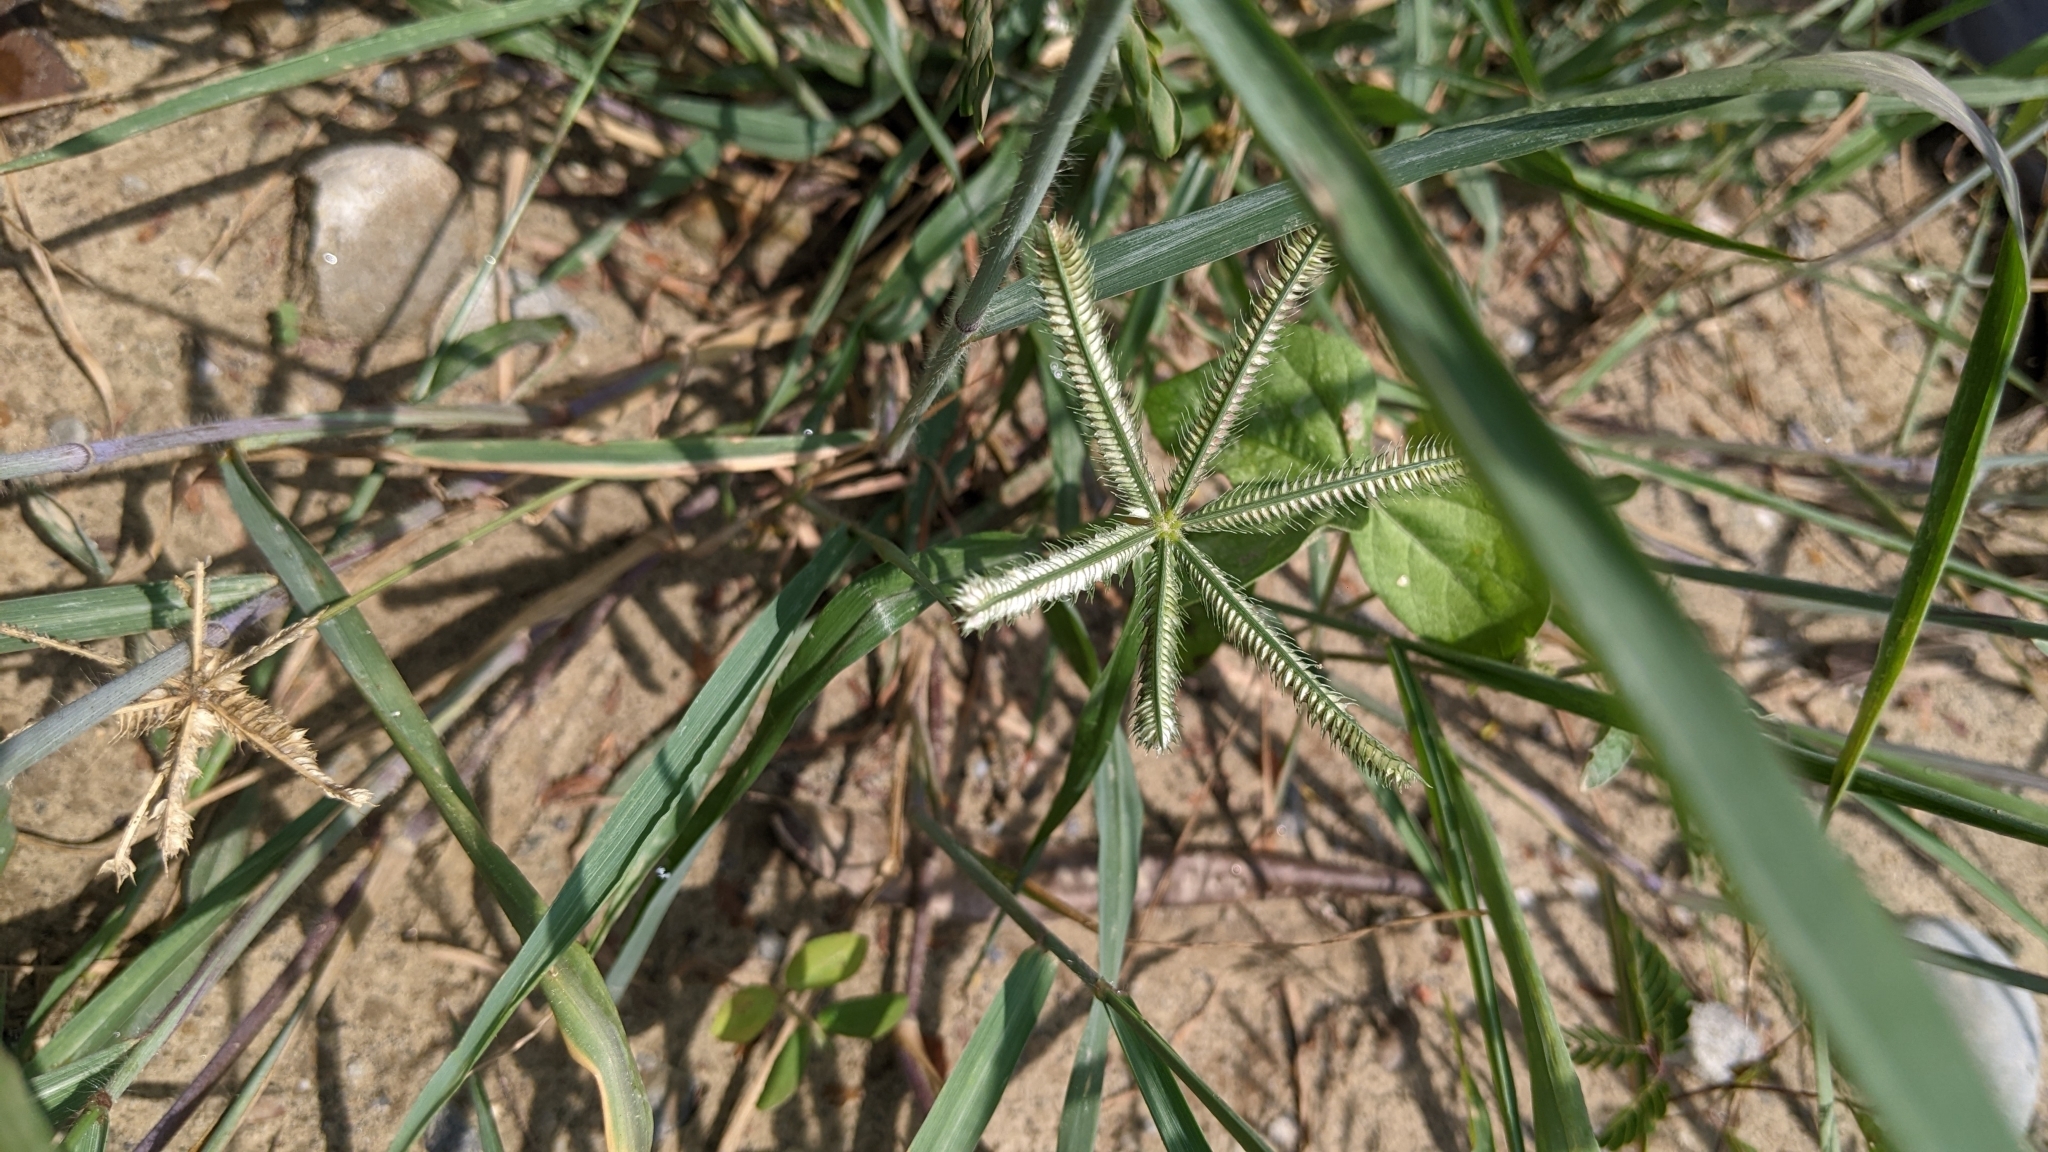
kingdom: Plantae
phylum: Tracheophyta
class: Liliopsida
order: Poales
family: Poaceae
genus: Dactyloctenium
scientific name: Dactyloctenium aegyptium
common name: Egyptian grass
